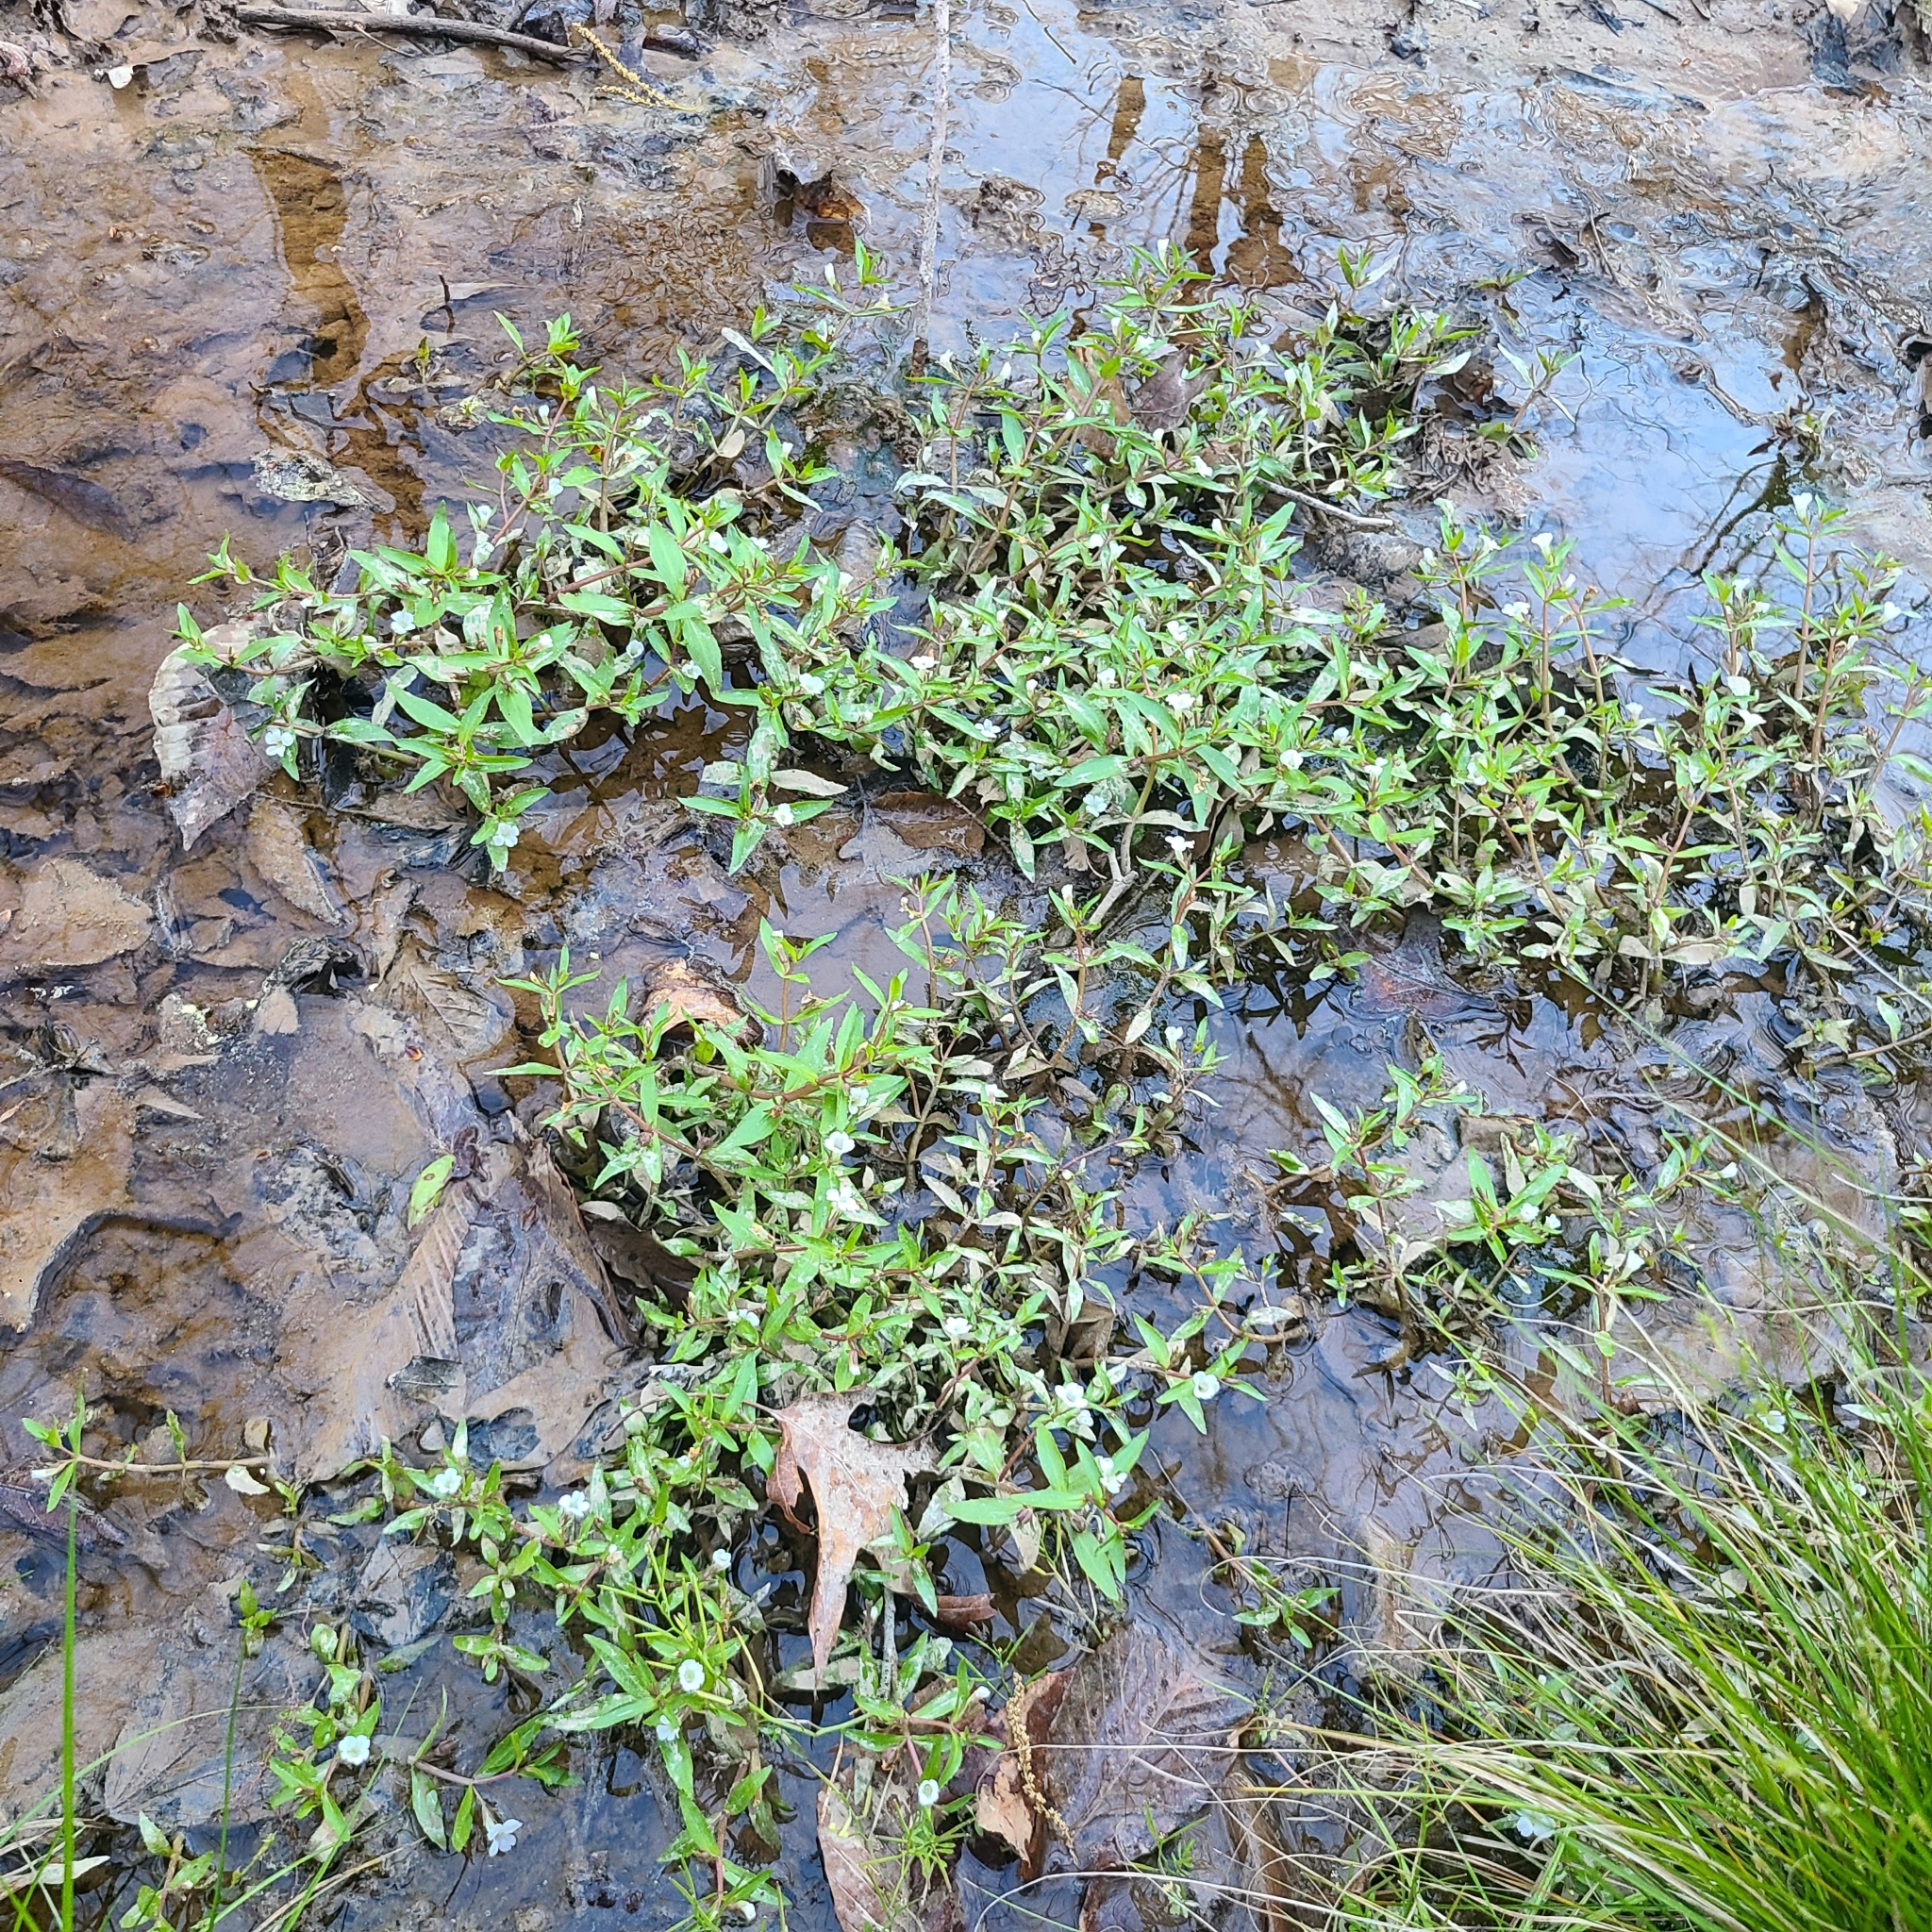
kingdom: Plantae
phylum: Tracheophyta
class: Magnoliopsida
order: Lamiales
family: Plantaginaceae
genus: Gratiola
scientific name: Gratiola virginiana
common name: Roundfruit hedgehyssop
